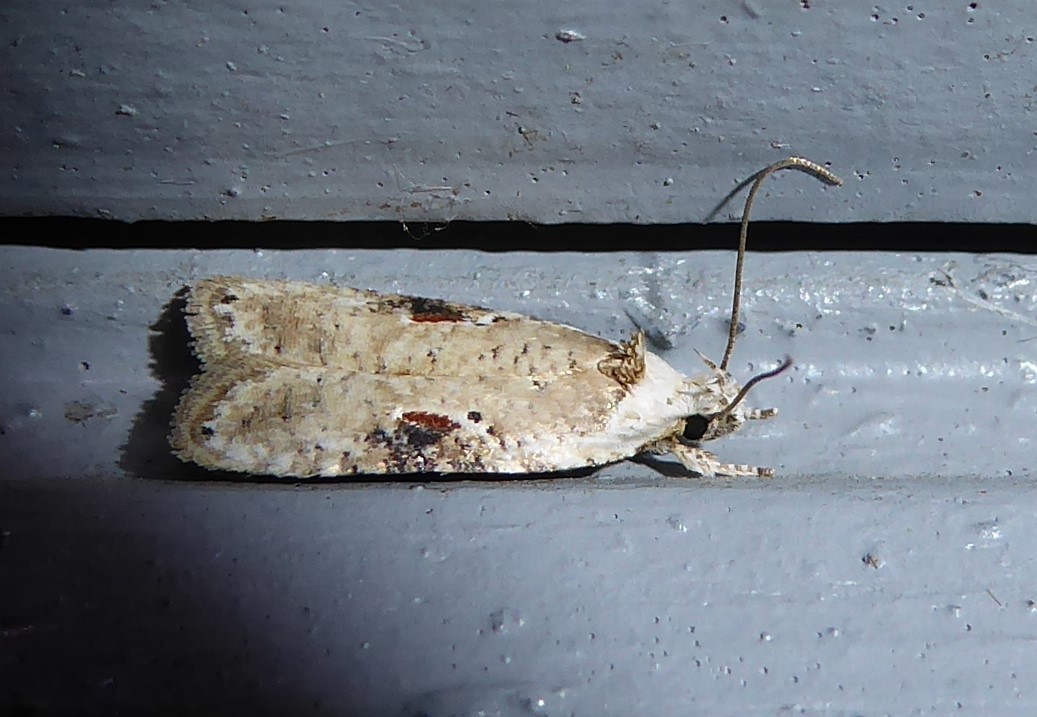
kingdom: Animalia
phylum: Arthropoda
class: Insecta
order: Lepidoptera
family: Depressariidae
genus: Agonopterix
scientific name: Agonopterix alstroemeriana
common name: Moth
